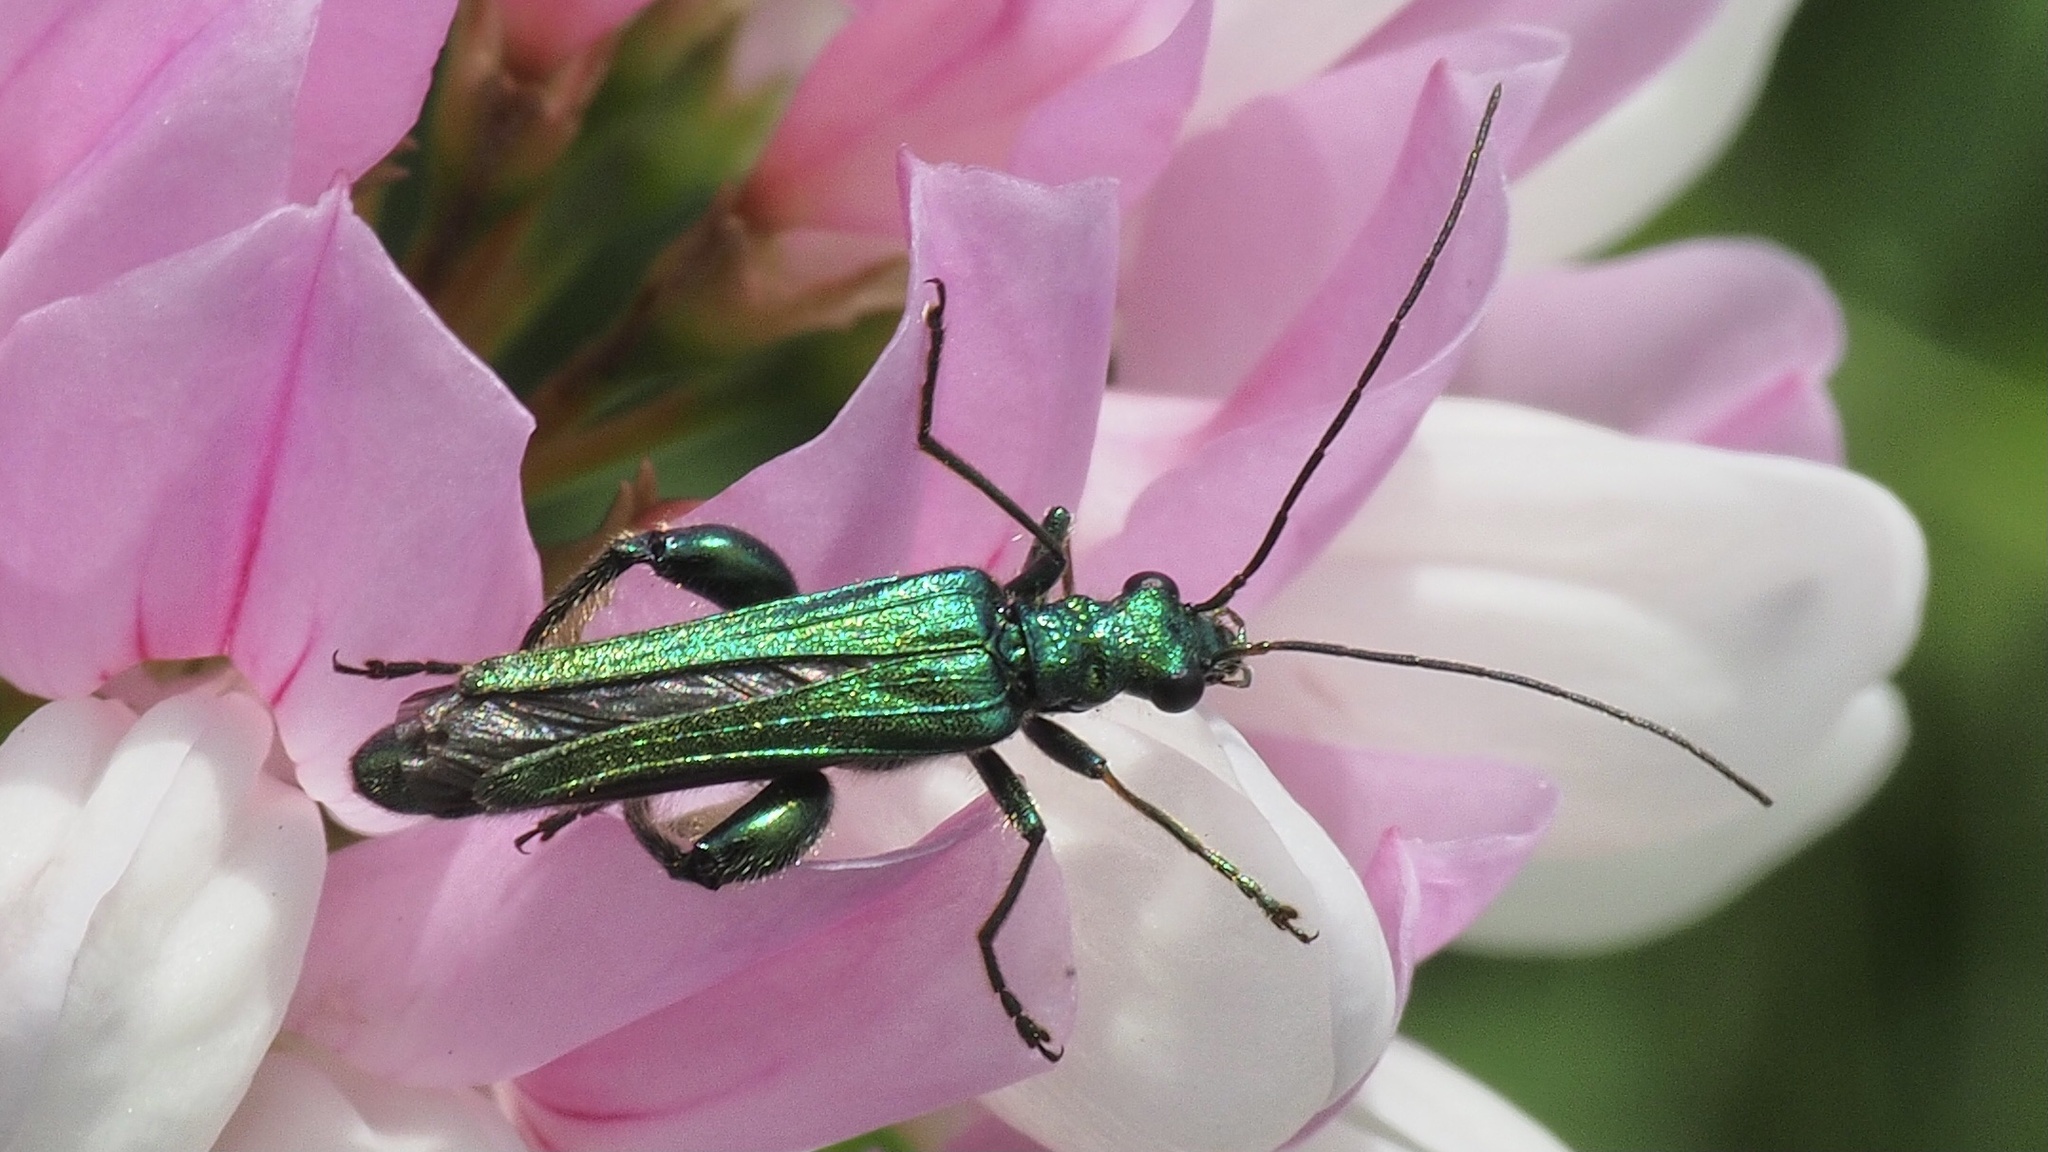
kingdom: Animalia
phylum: Arthropoda
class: Insecta
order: Coleoptera
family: Oedemeridae
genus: Oedemera
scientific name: Oedemera nobilis
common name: Swollen-thighed beetle
